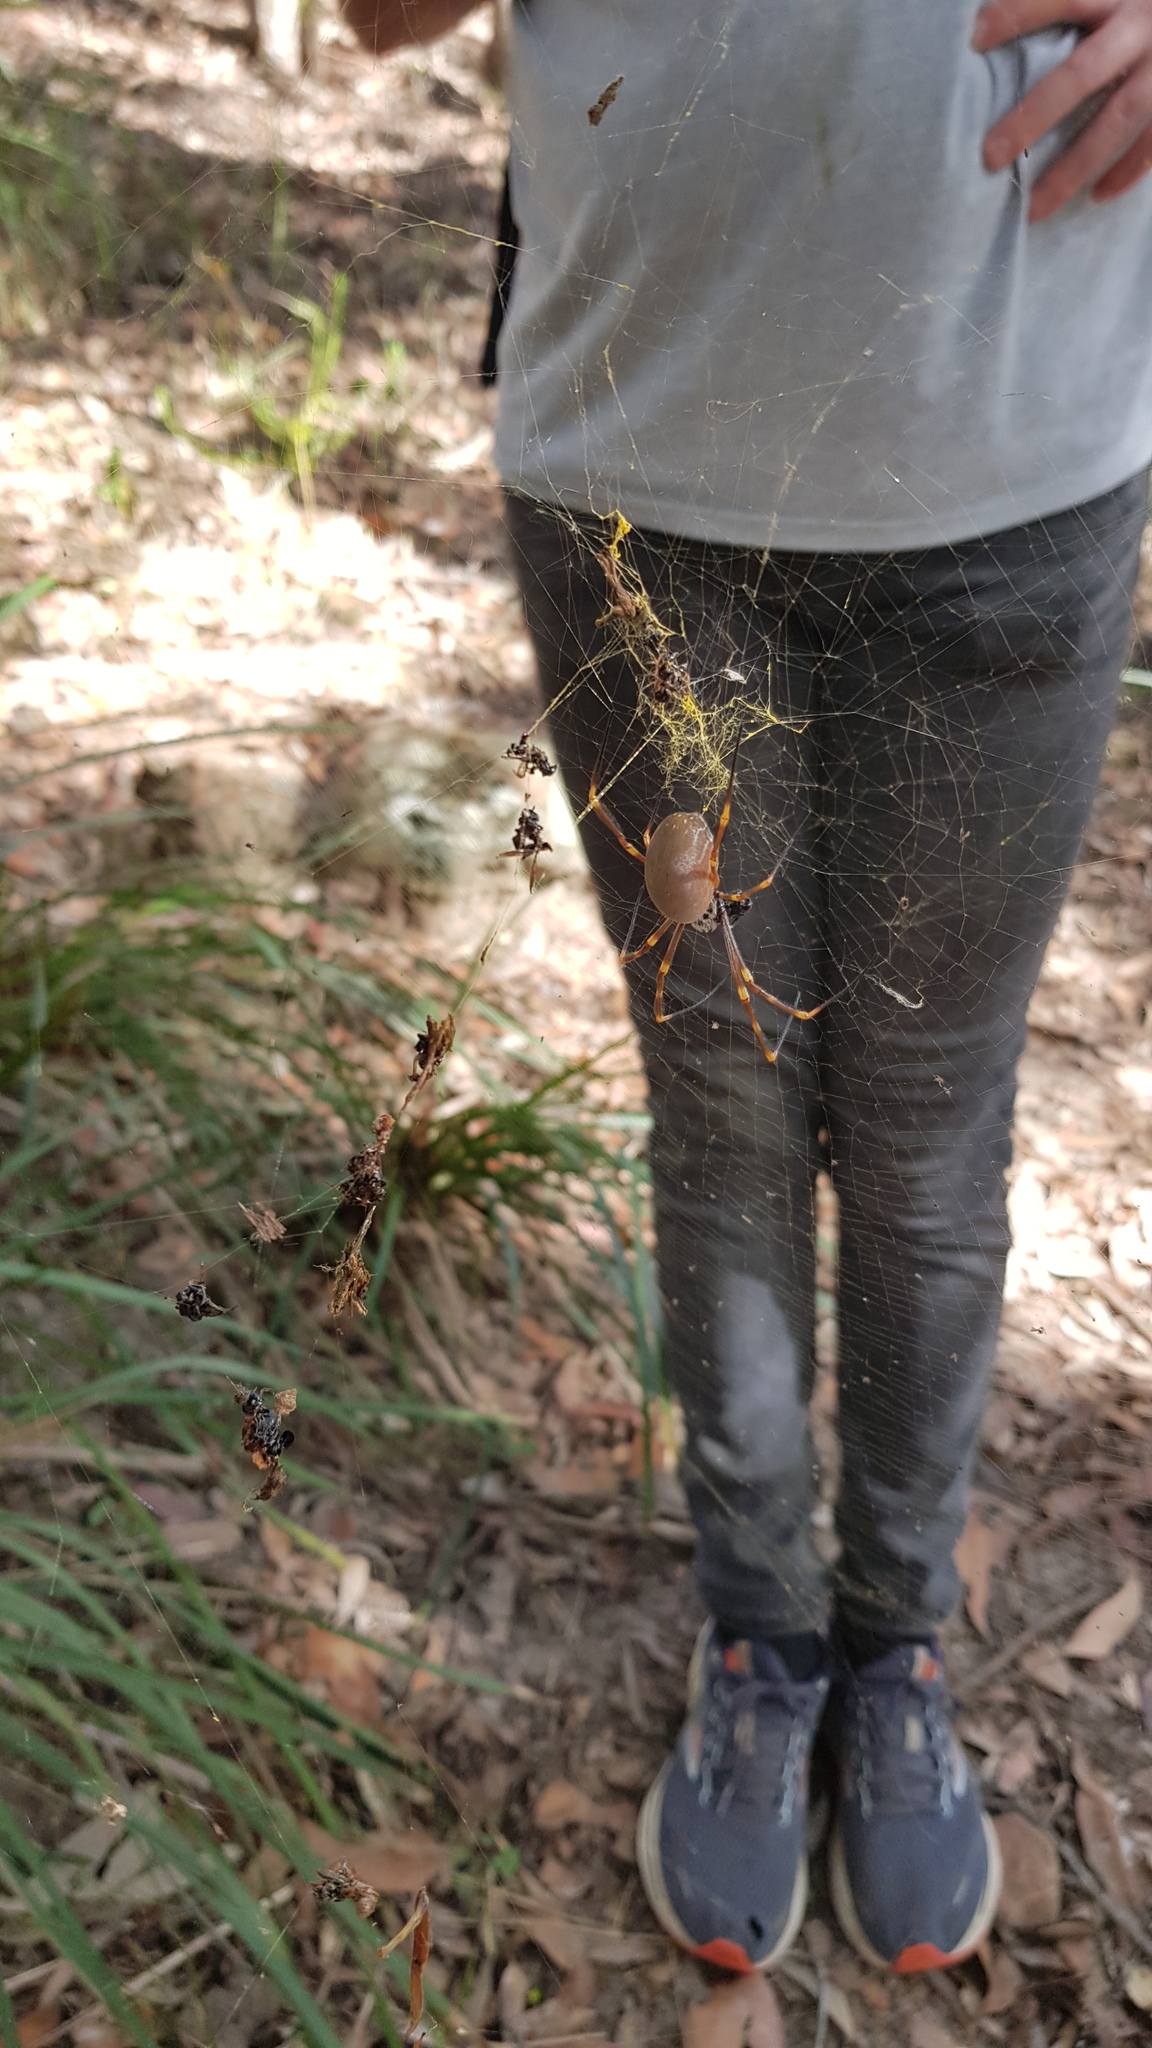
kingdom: Animalia
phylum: Arthropoda
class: Arachnida
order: Araneae
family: Araneidae
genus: Trichonephila
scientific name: Trichonephila plumipes
